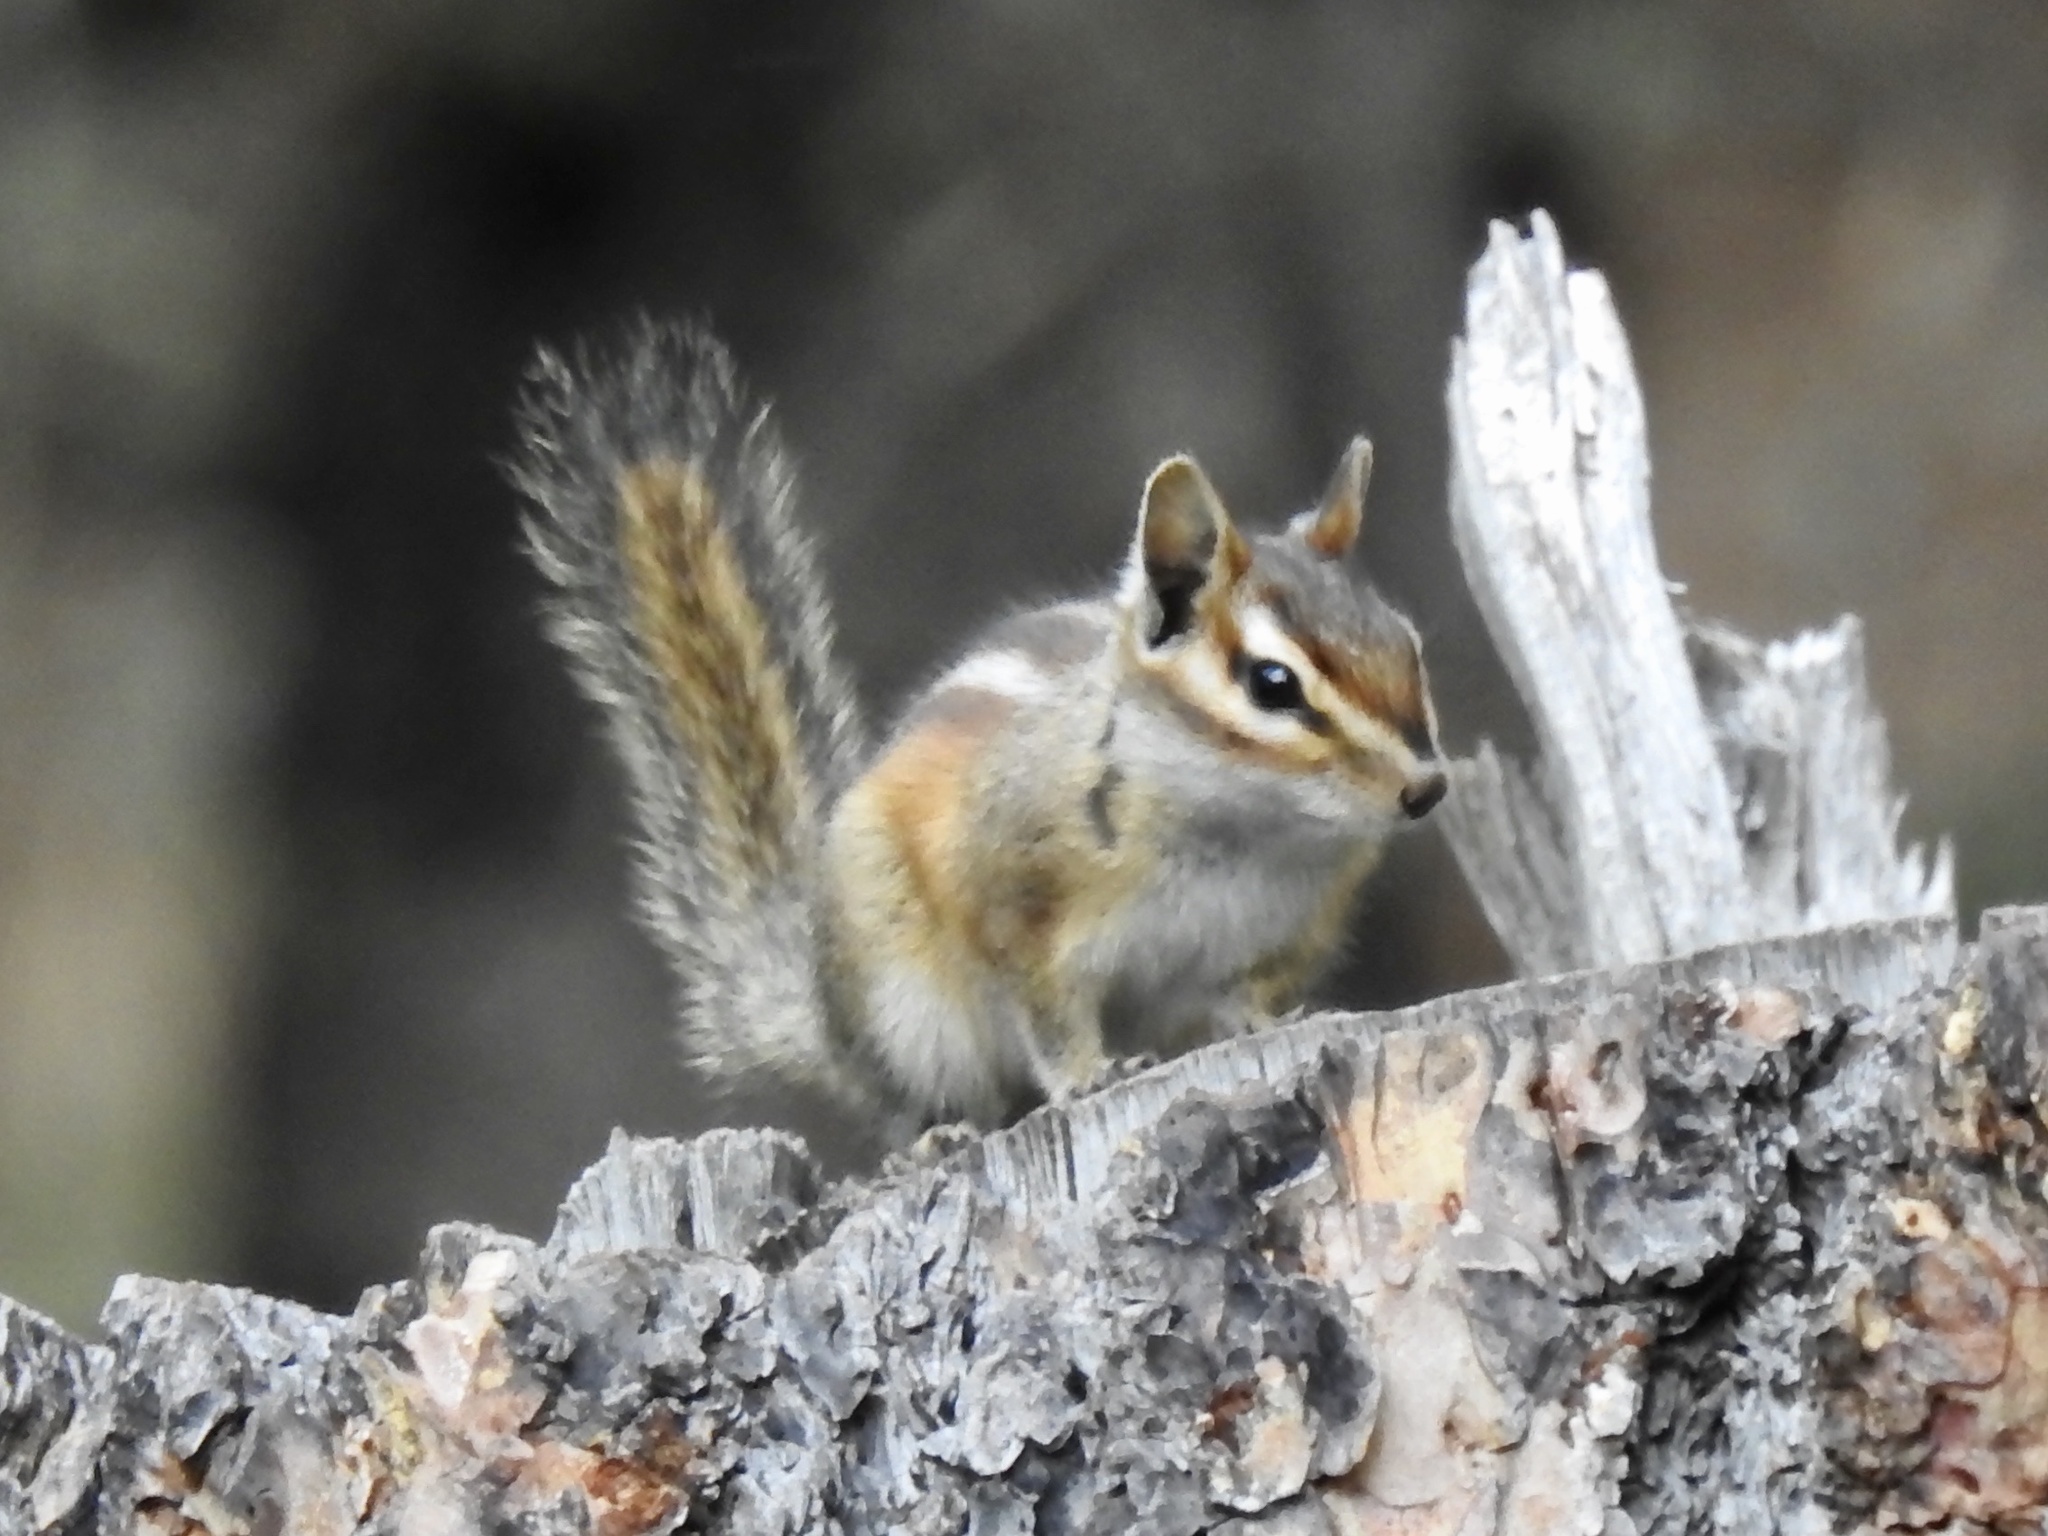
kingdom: Animalia
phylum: Chordata
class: Mammalia
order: Rodentia
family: Sciuridae
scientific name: Sciuridae
